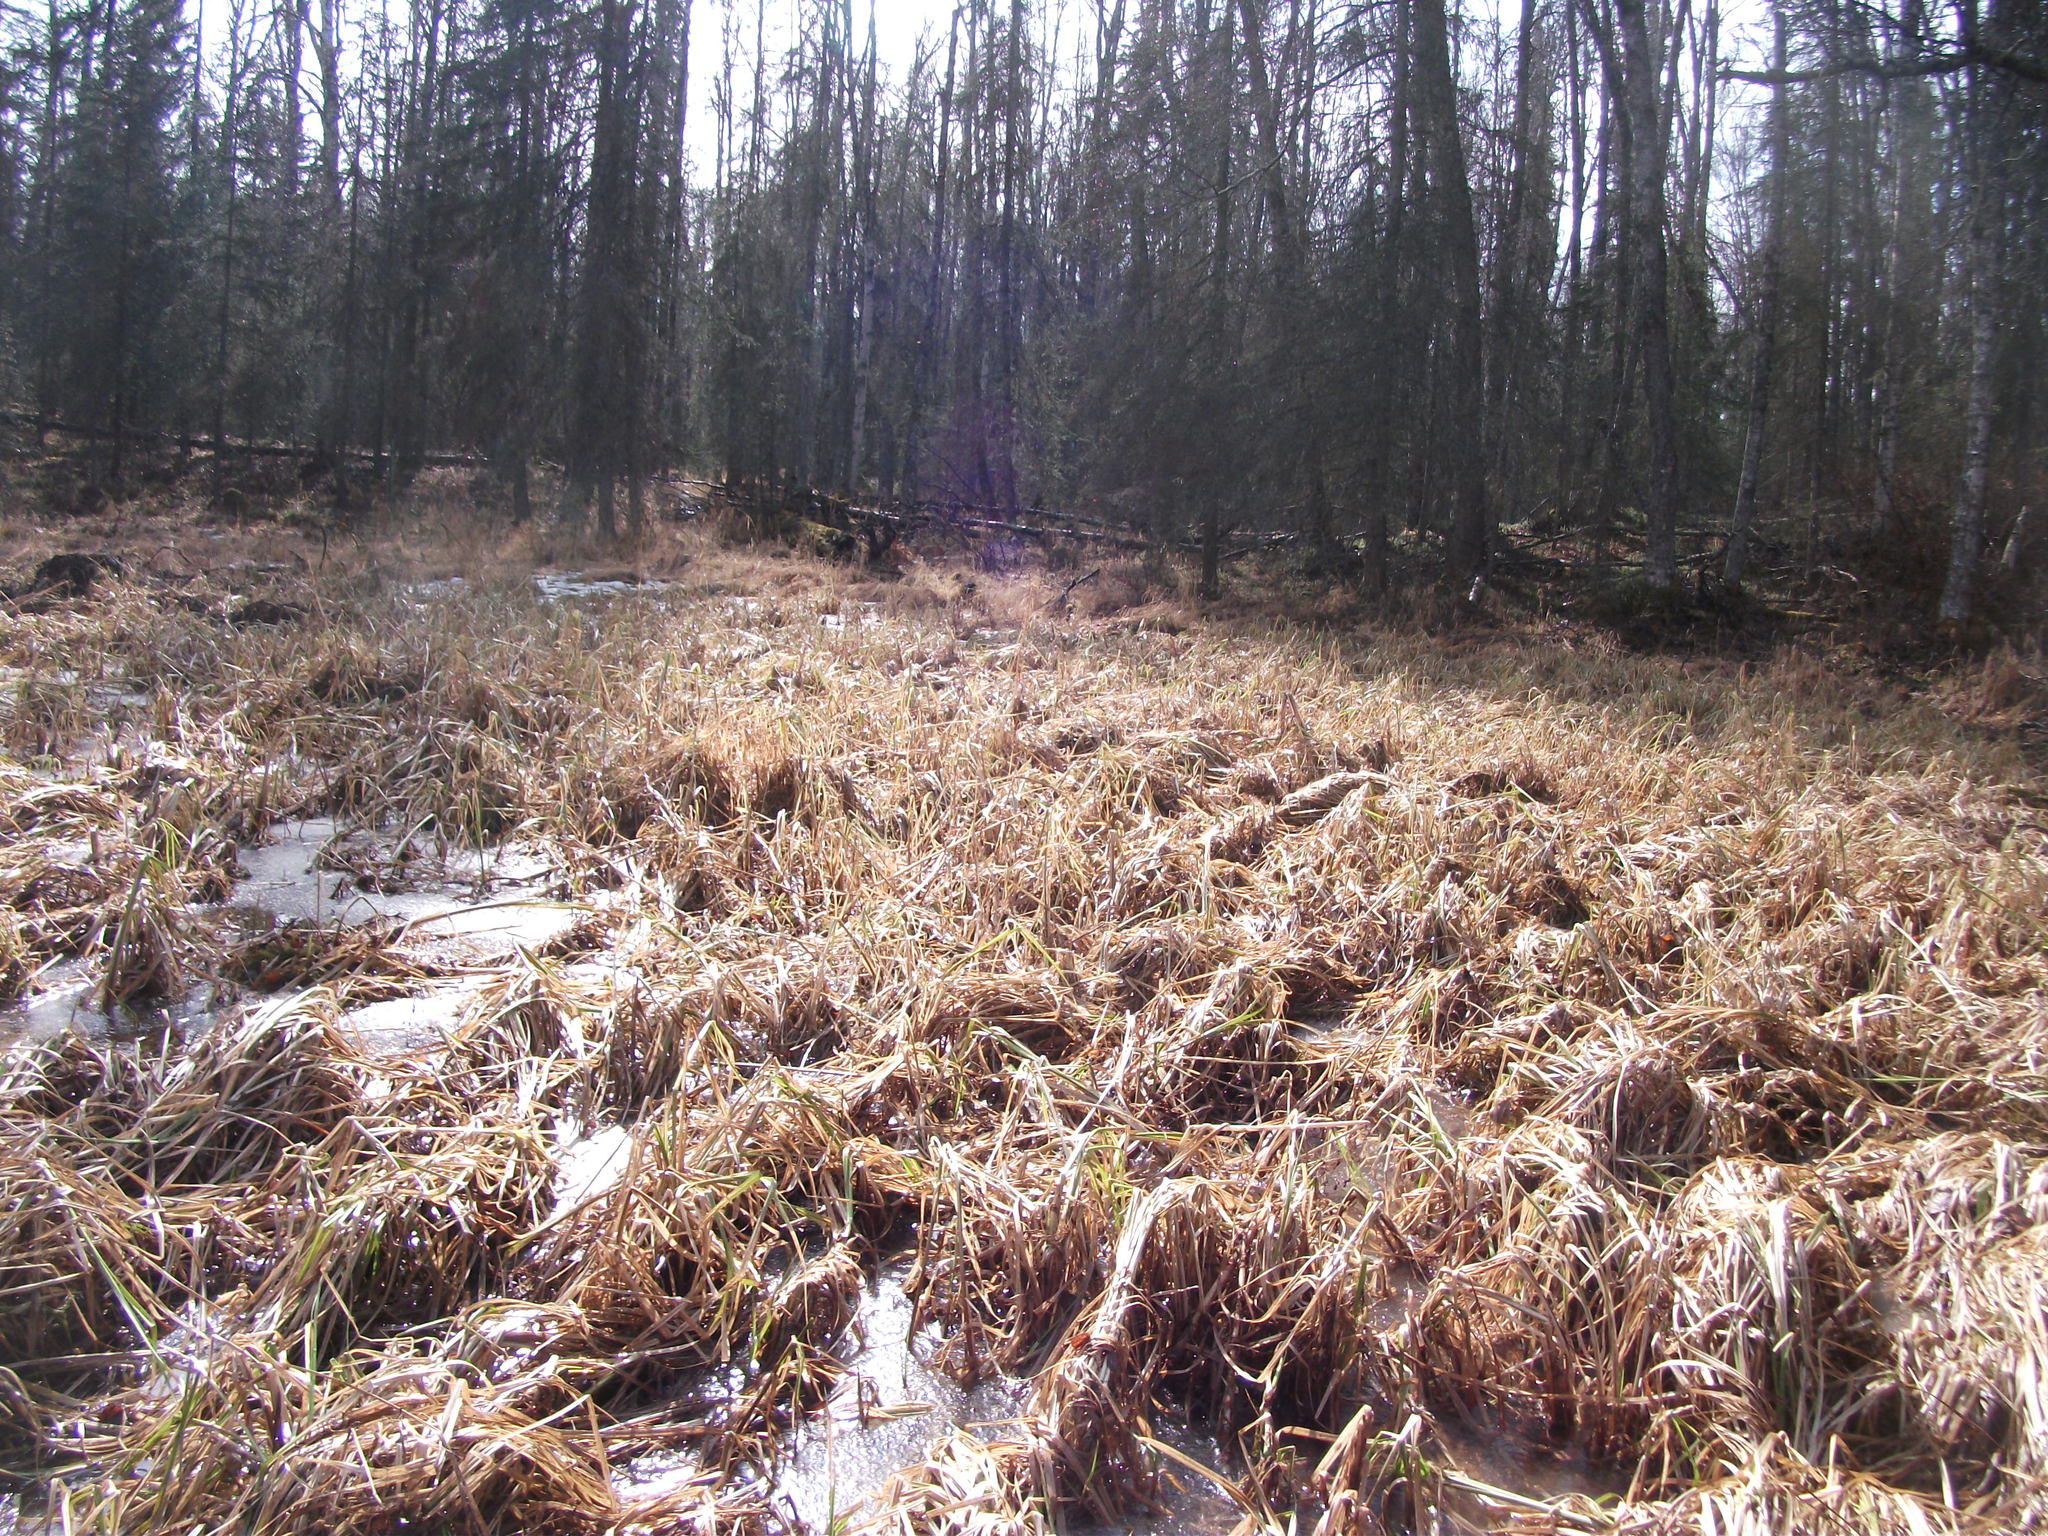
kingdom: Plantae
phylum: Tracheophyta
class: Liliopsida
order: Poales
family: Cyperaceae
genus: Carex
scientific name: Carex utriculata
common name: Beaked sedge
